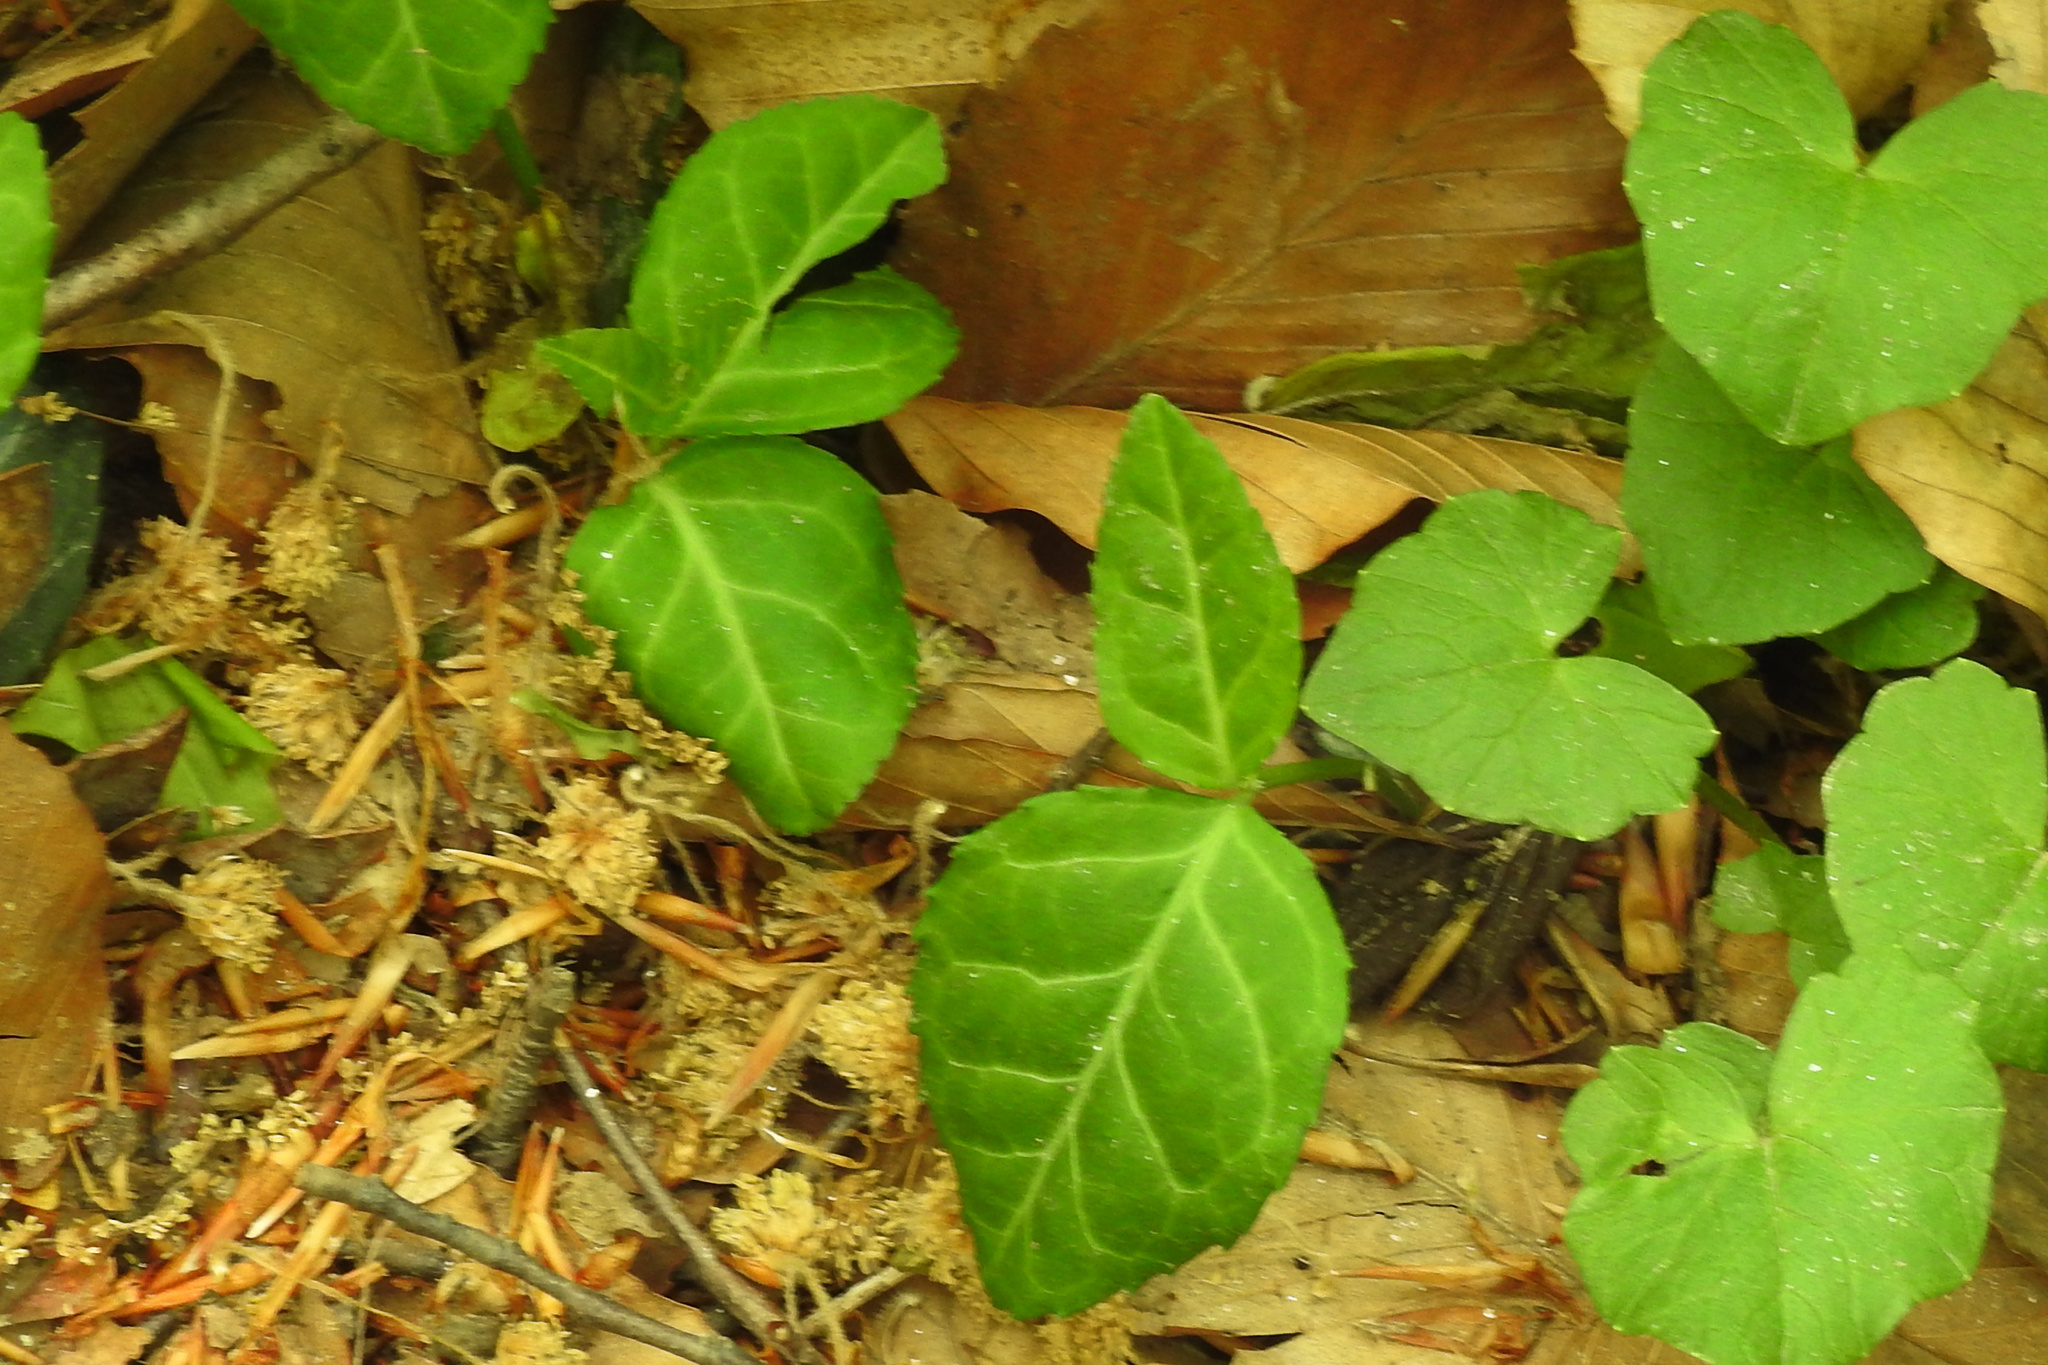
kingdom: Plantae
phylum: Tracheophyta
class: Magnoliopsida
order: Celastrales
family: Celastraceae
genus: Euonymus
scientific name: Euonymus fortunei
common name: Climbing euonymus
